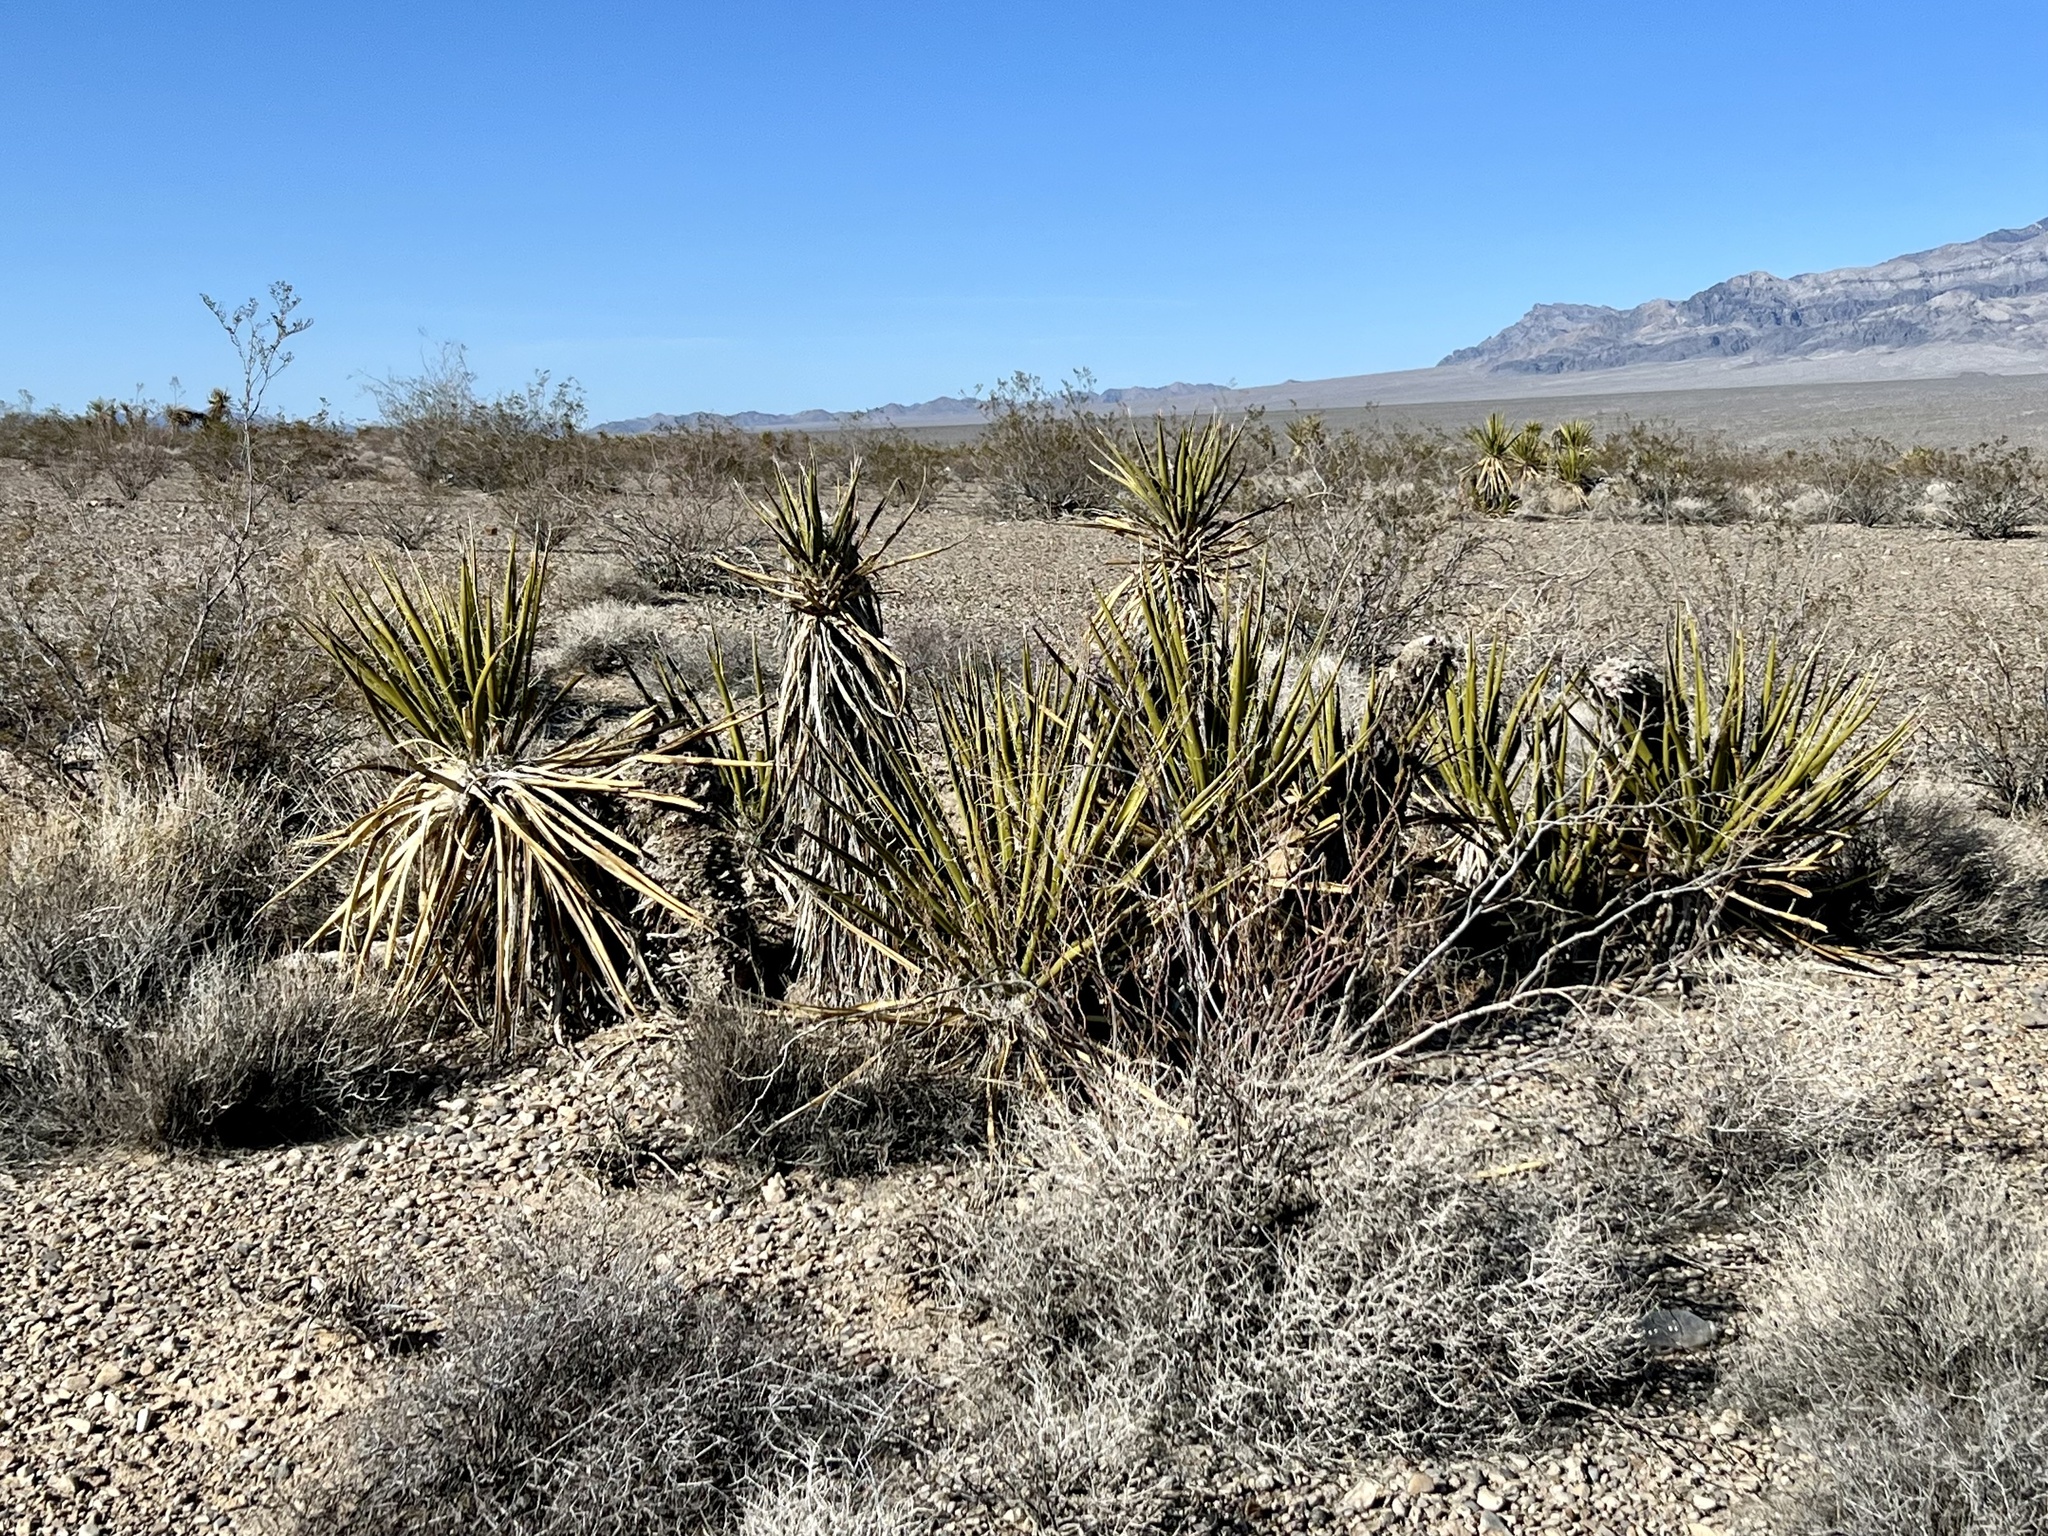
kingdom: Plantae
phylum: Tracheophyta
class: Liliopsida
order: Asparagales
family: Asparagaceae
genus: Yucca
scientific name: Yucca schidigera
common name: Mojave yucca
